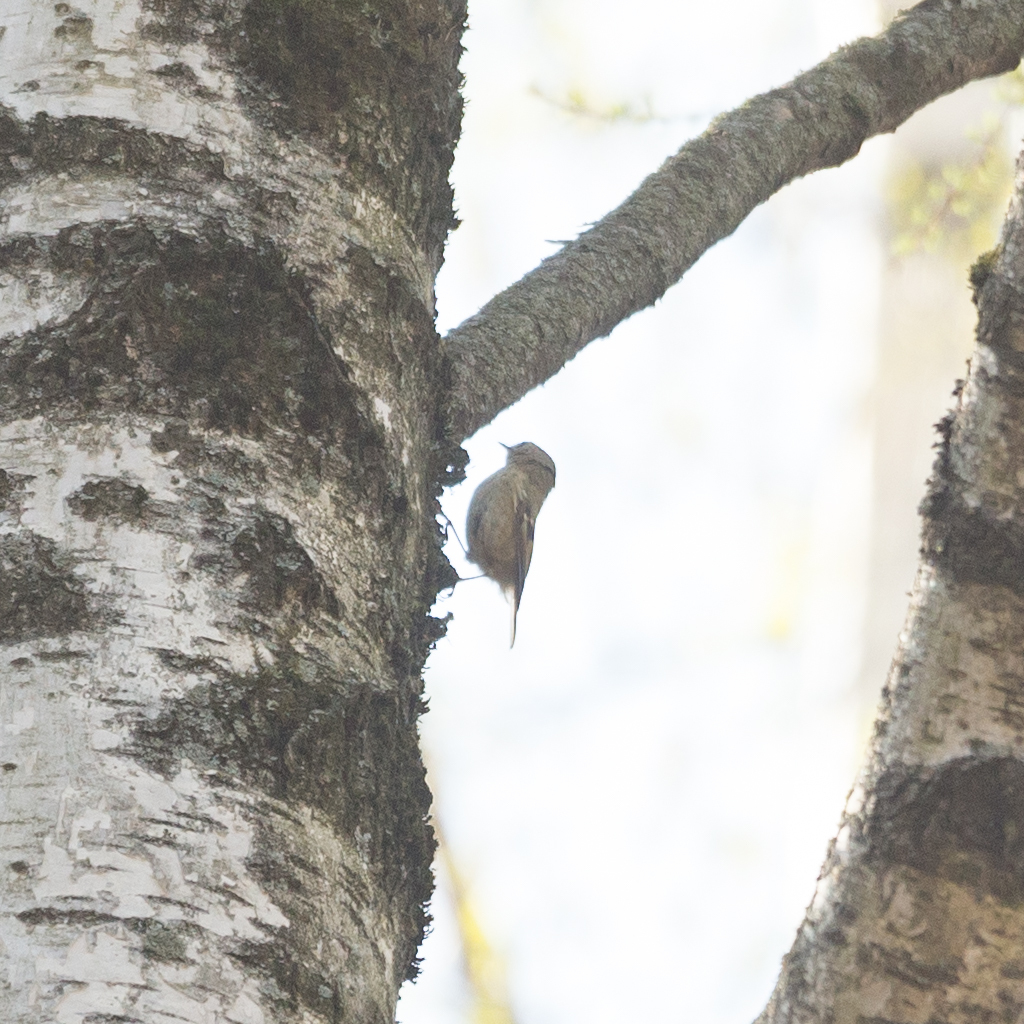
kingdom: Animalia
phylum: Chordata
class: Aves
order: Passeriformes
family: Regulidae
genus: Regulus
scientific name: Regulus regulus
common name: Goldcrest
